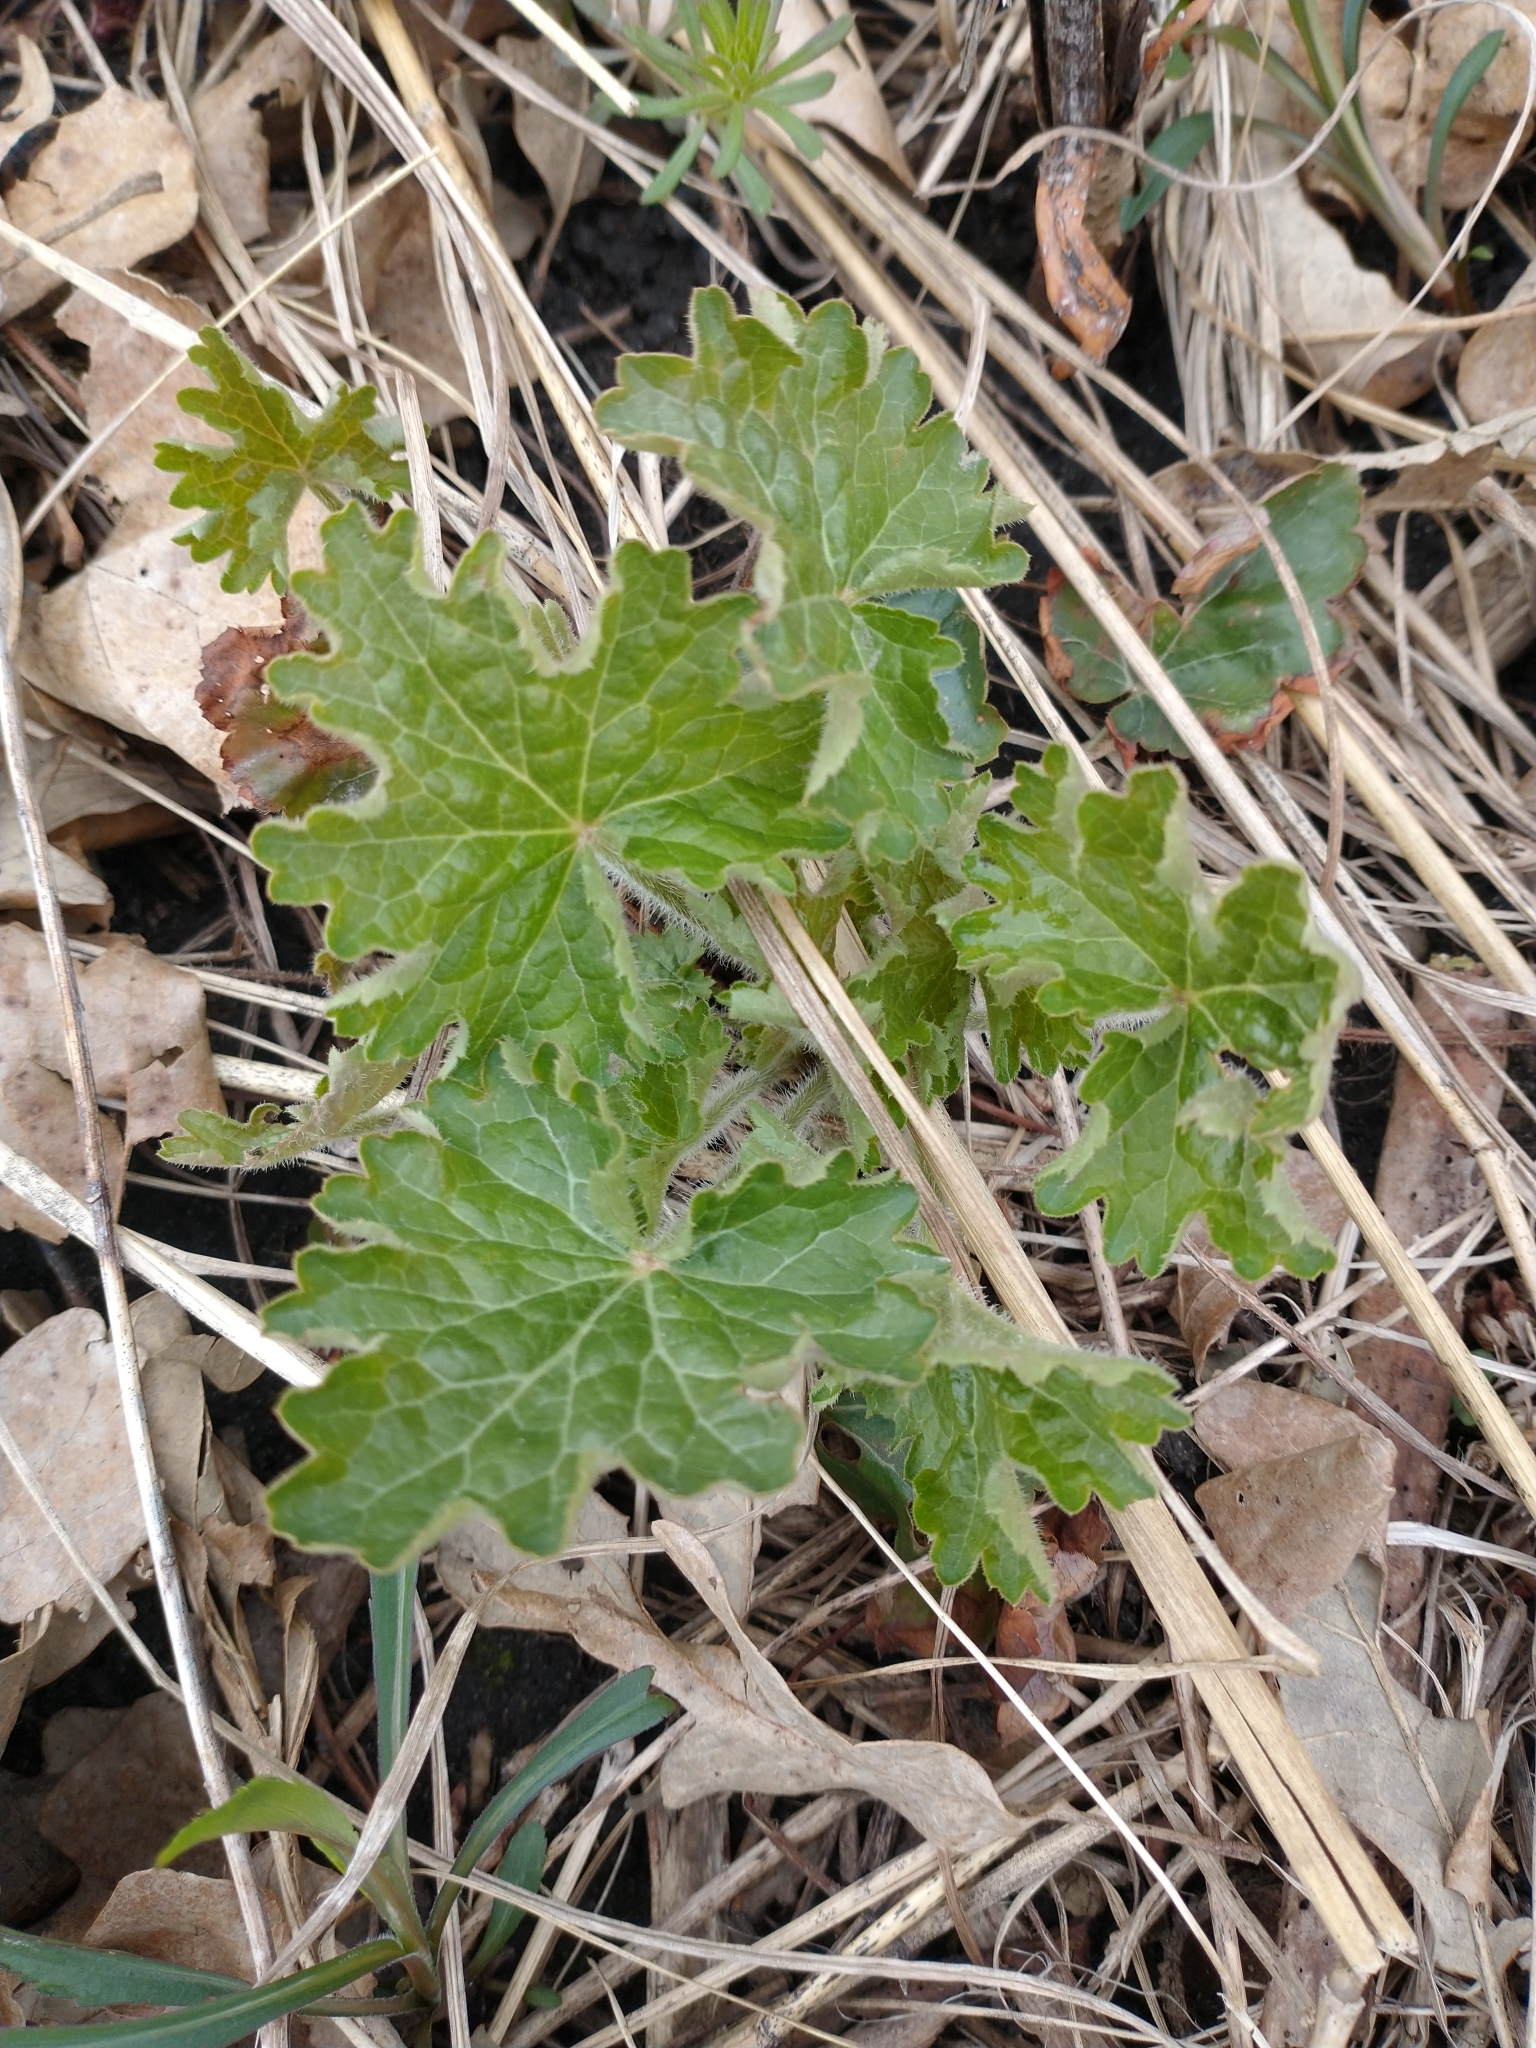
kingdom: Plantae
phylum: Tracheophyta
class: Magnoliopsida
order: Saxifragales
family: Saxifragaceae
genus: Heuchera
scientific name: Heuchera richardsonii
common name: Richardson's alumroot
